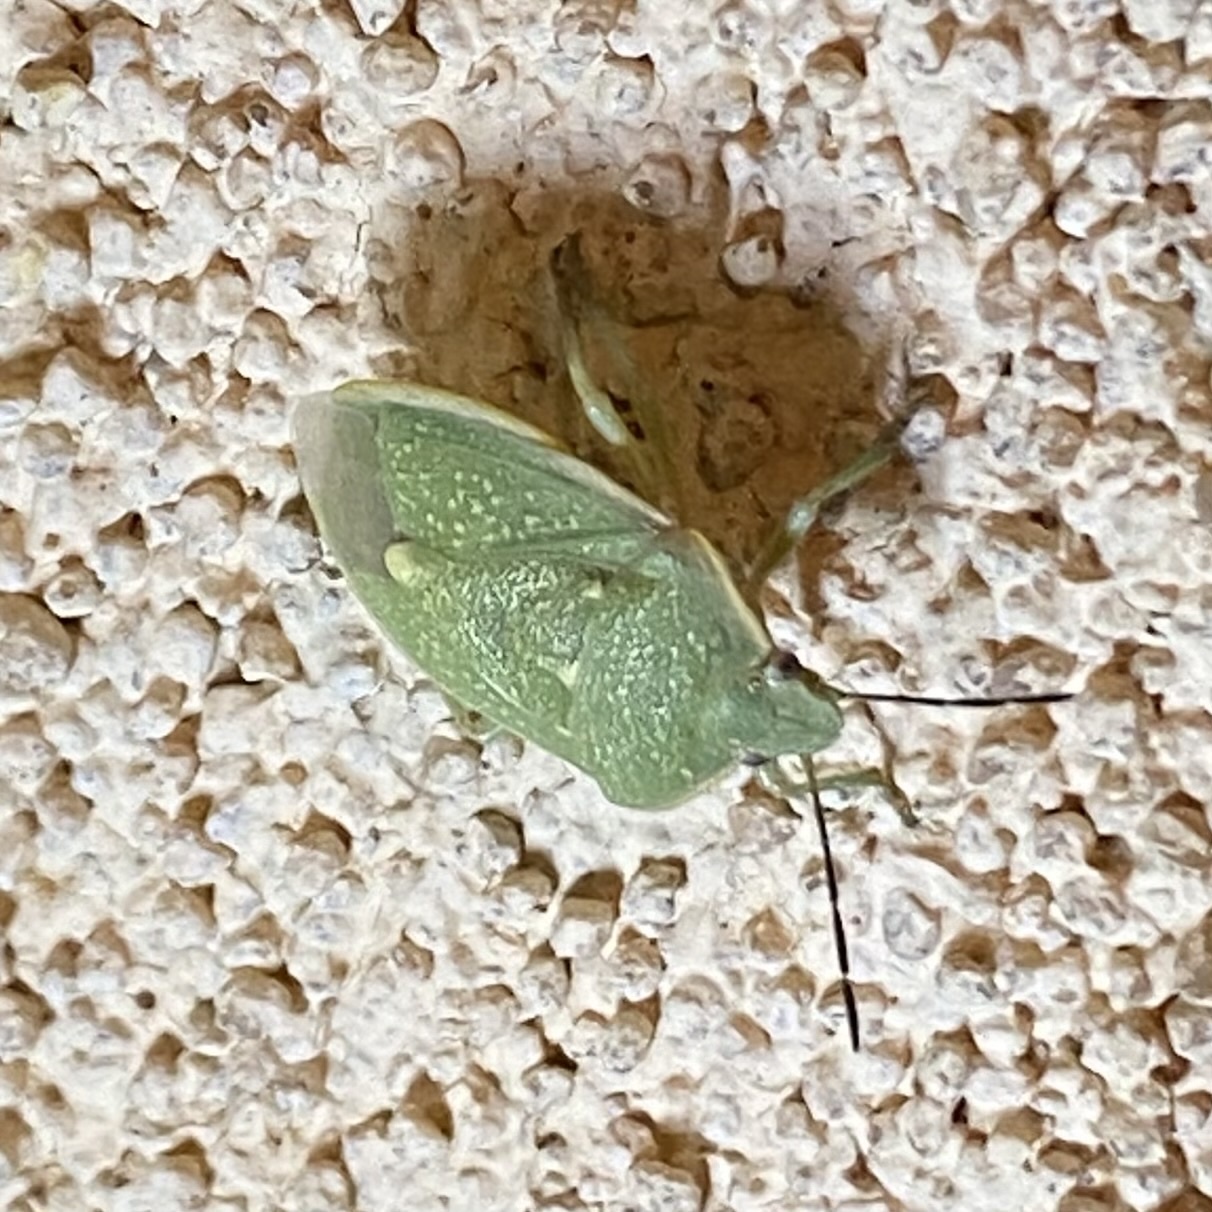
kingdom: Animalia
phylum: Arthropoda
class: Insecta
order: Hemiptera
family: Pentatomidae
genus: Chlorochroa
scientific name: Chlorochroa uhleri
